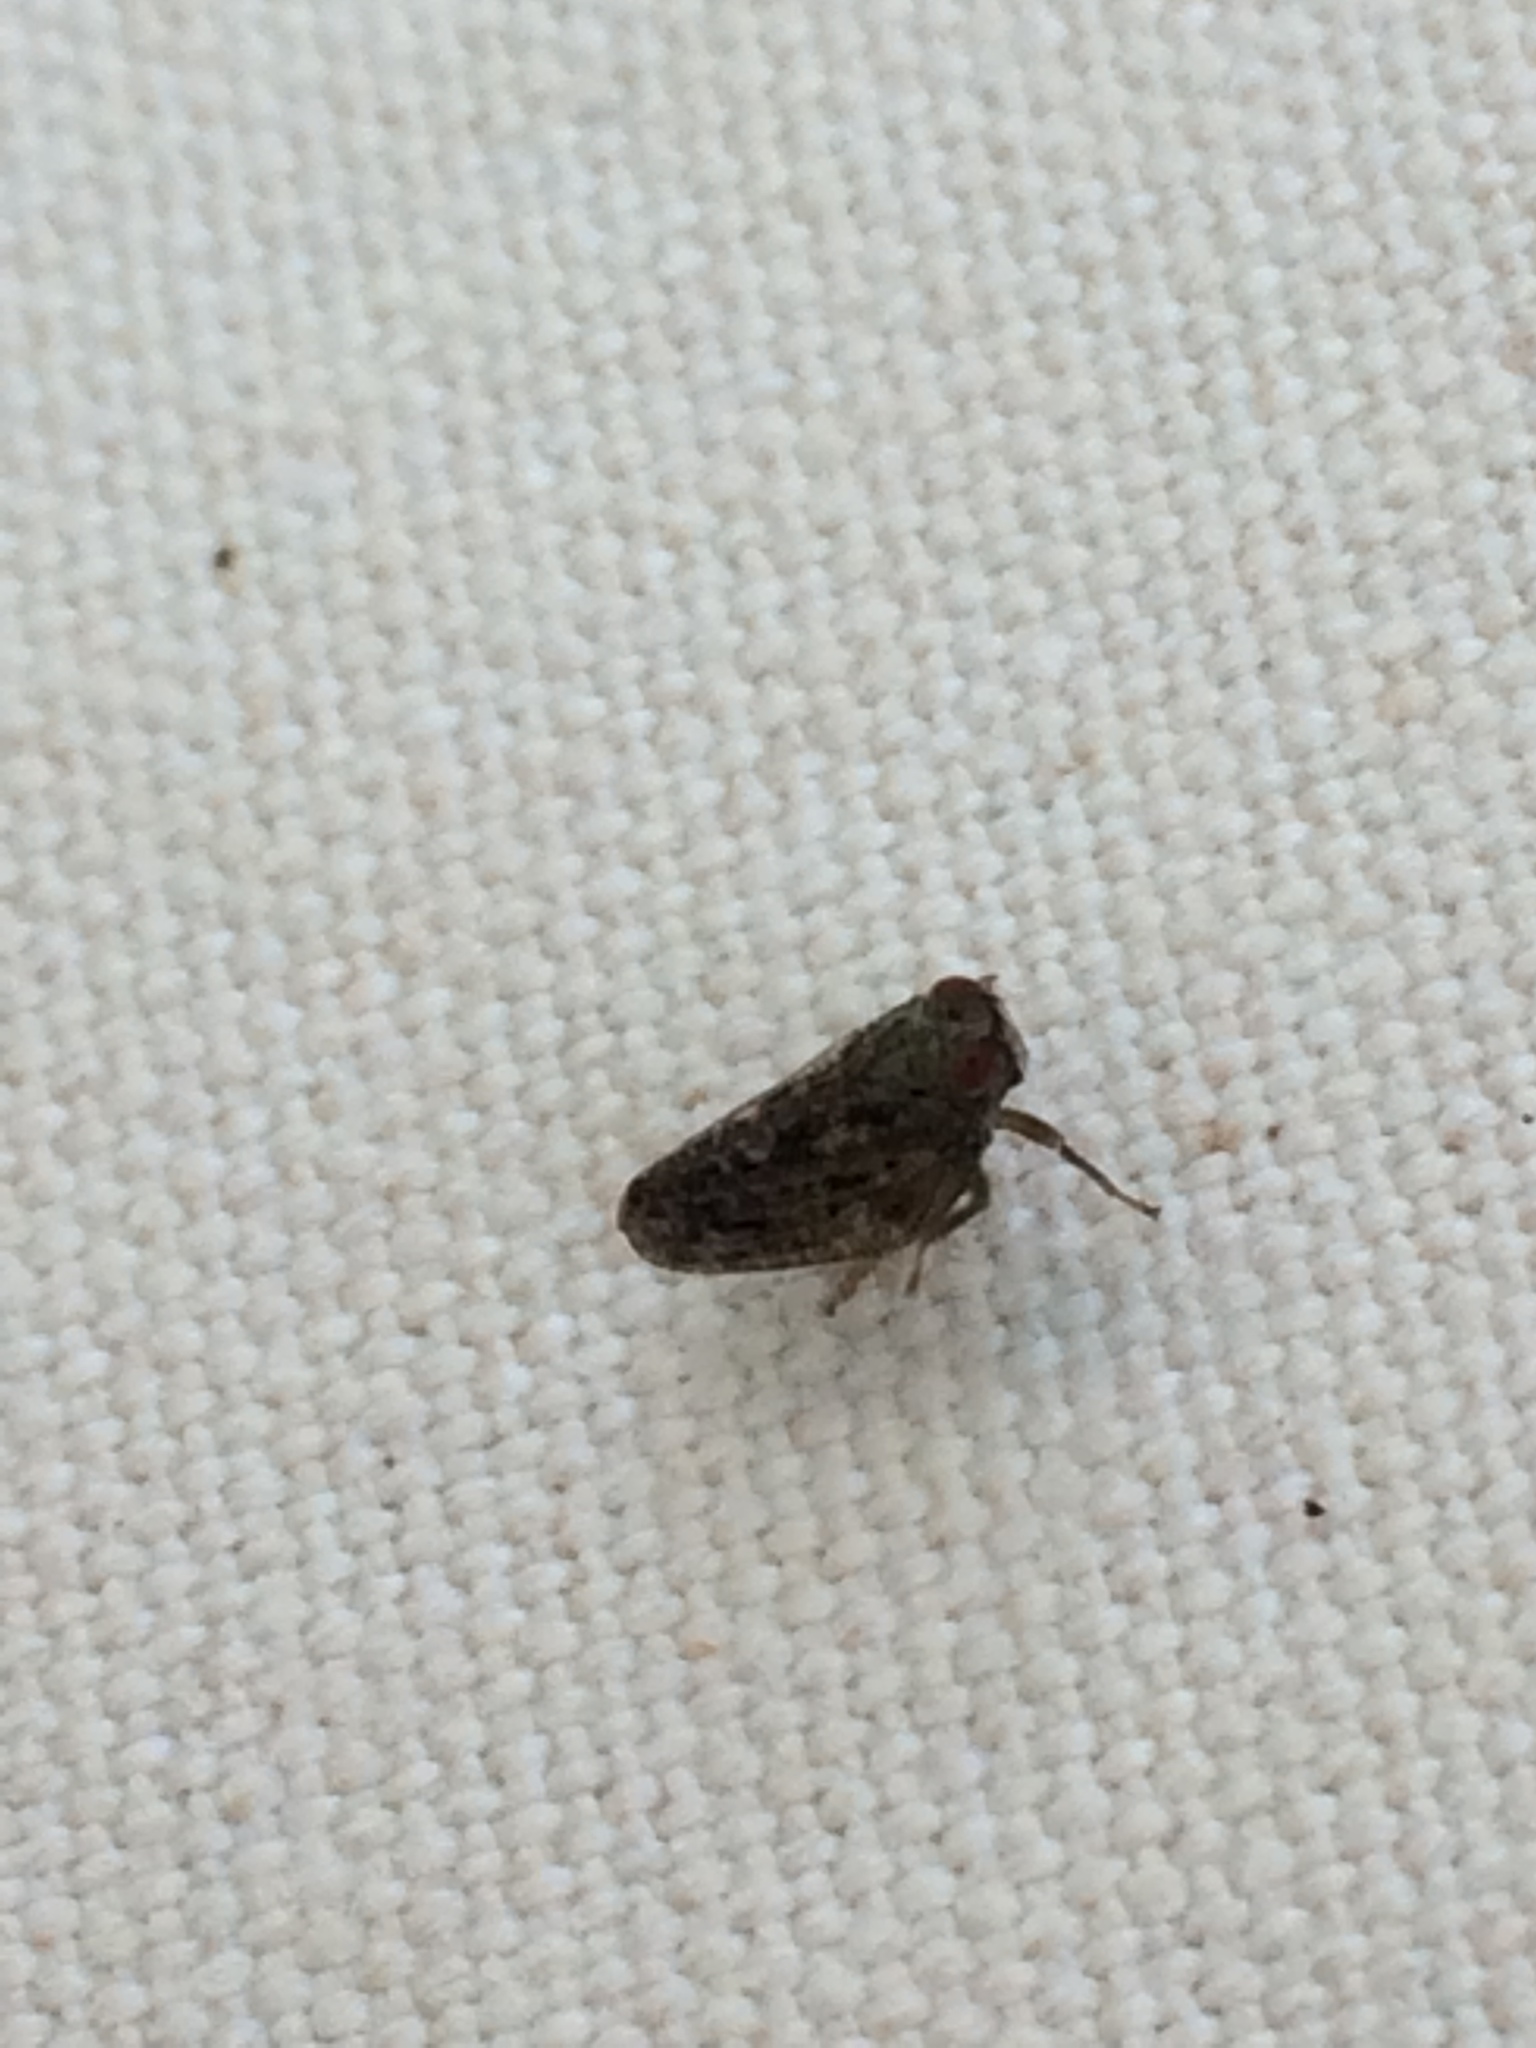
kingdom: Animalia
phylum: Arthropoda
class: Insecta
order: Hemiptera
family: Issidae
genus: Thionia
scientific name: Thionia bullata
